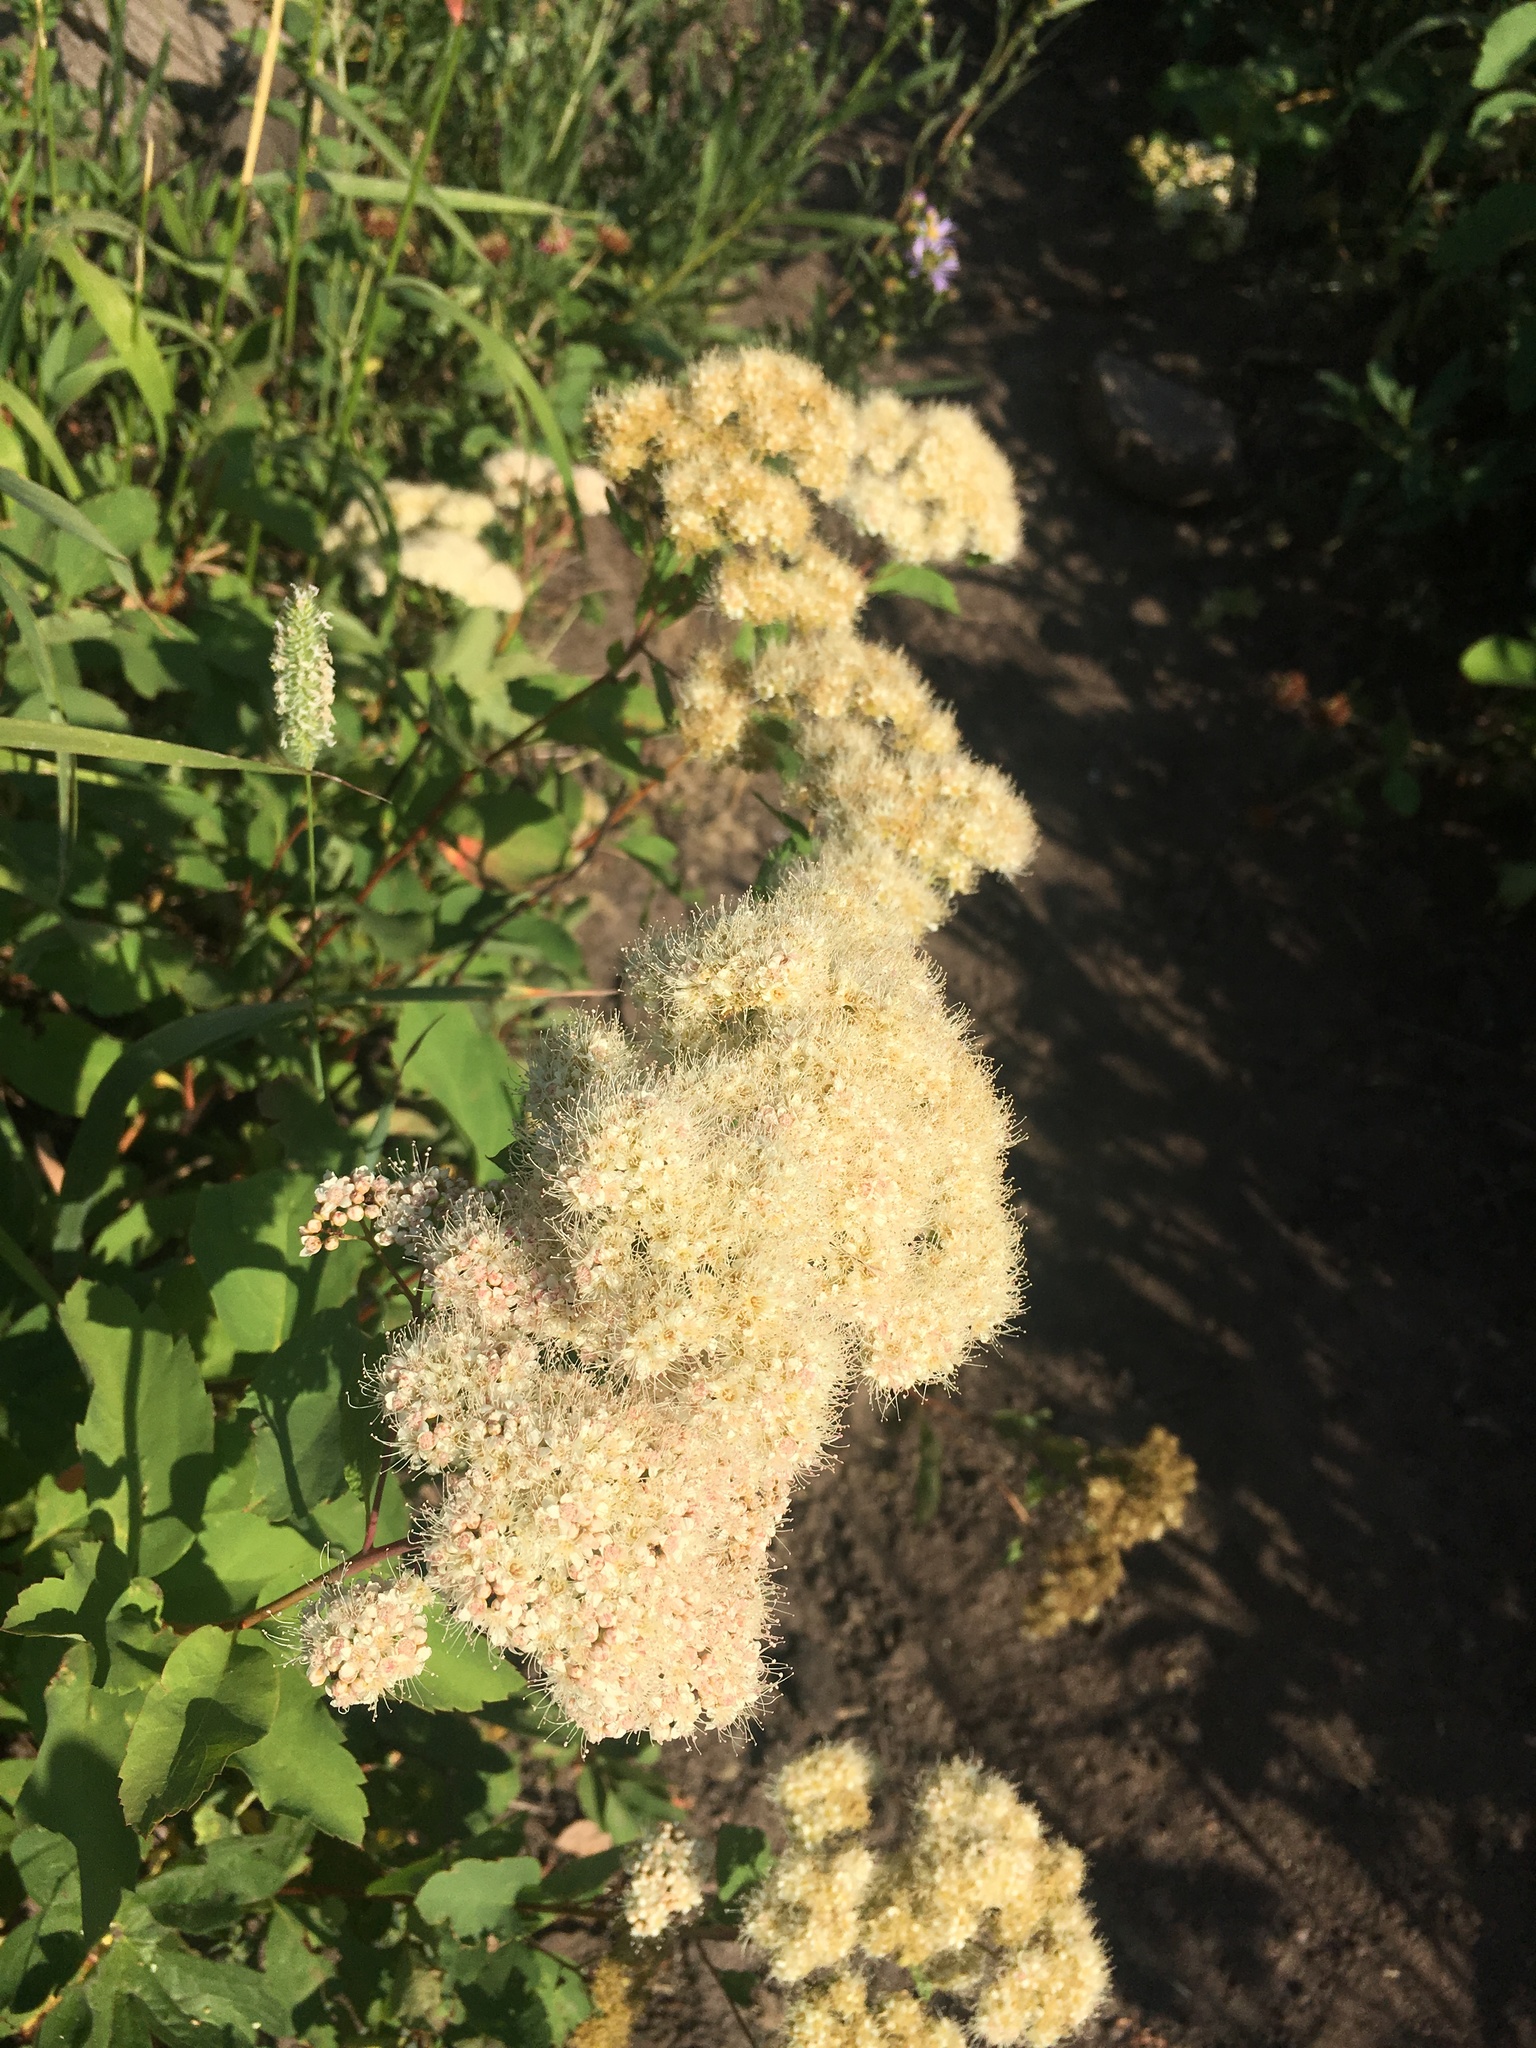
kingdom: Plantae
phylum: Tracheophyta
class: Magnoliopsida
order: Rosales
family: Rosaceae
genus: Spiraea
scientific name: Spiraea lucida
